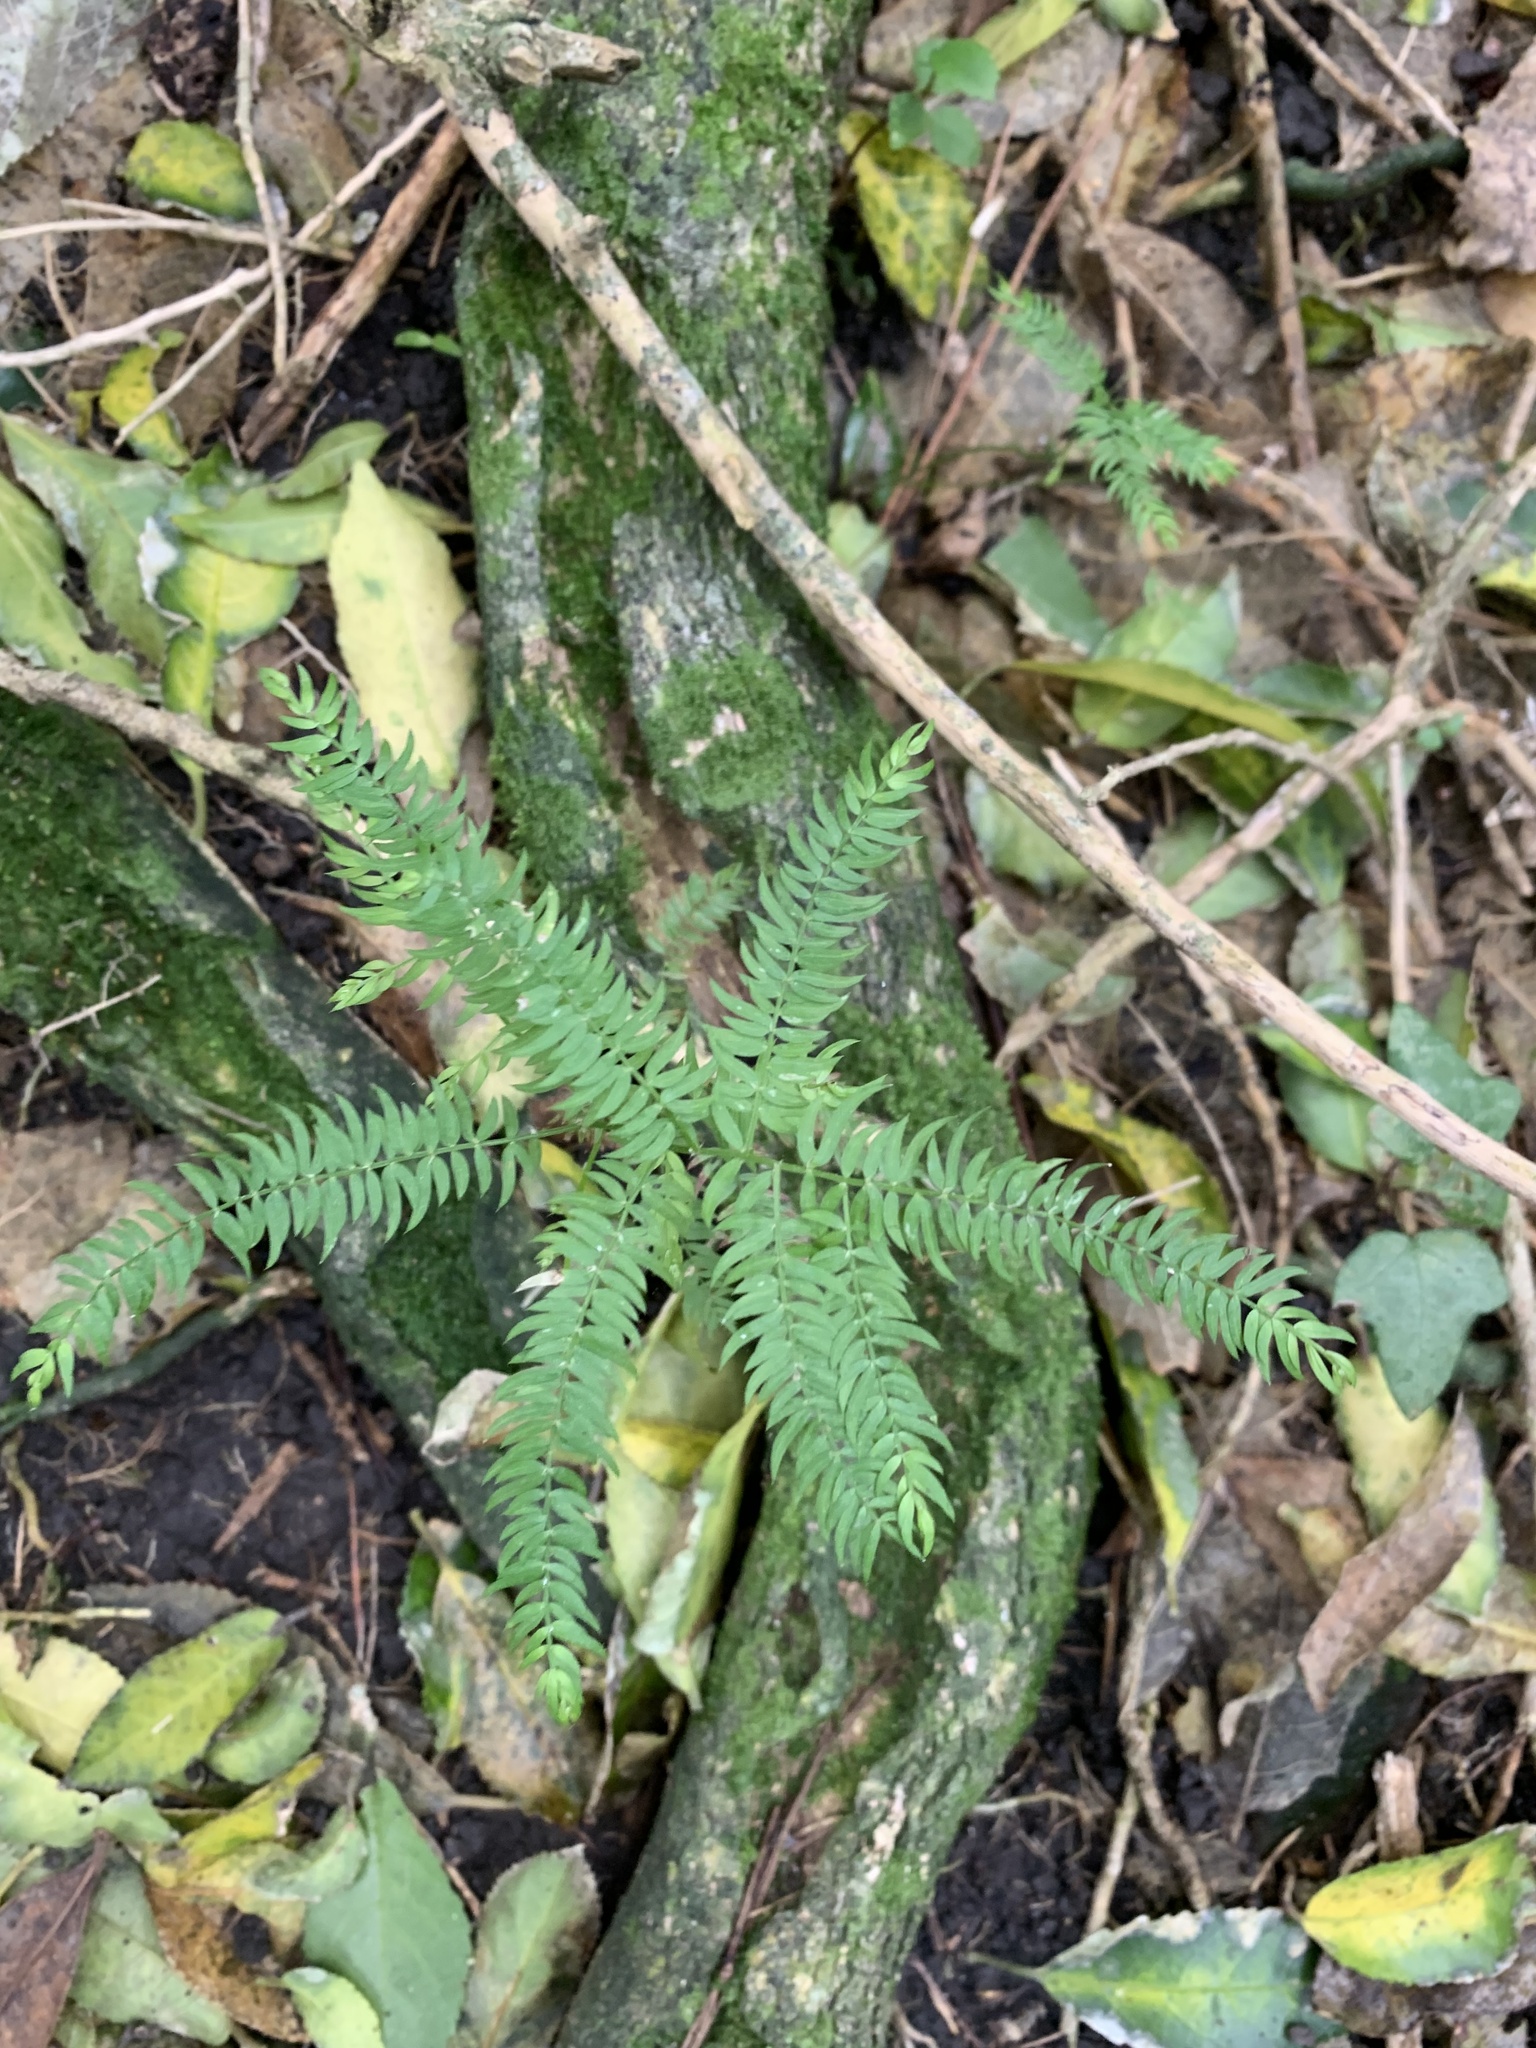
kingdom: Plantae
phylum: Tracheophyta
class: Liliopsida
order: Asparagales
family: Asparagaceae
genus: Asparagus
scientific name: Asparagus scandens
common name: Asparagus-fern
